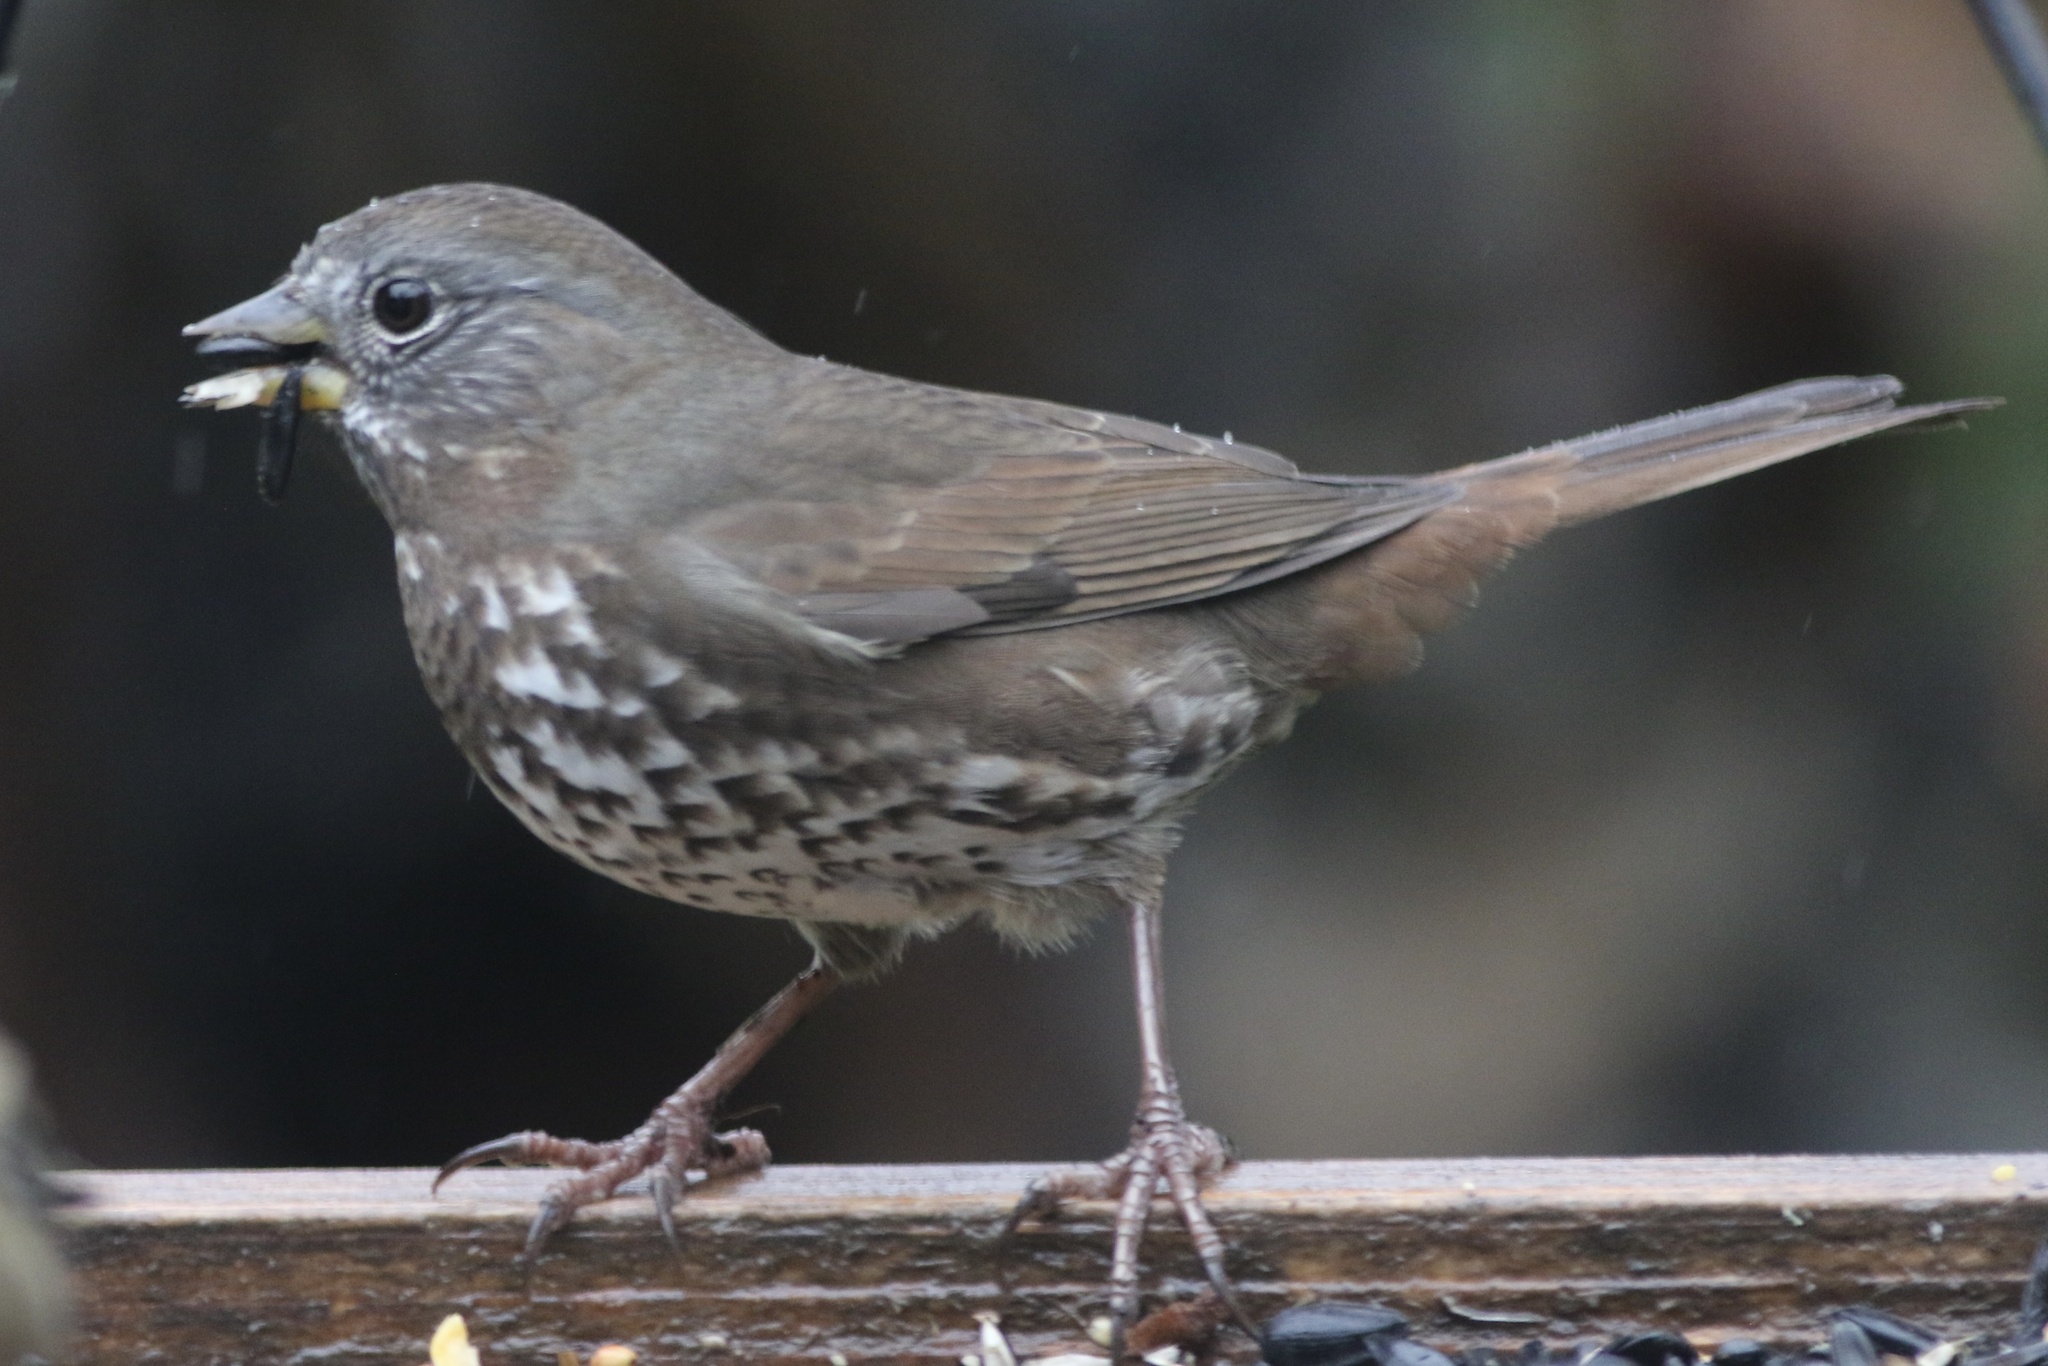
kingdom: Animalia
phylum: Chordata
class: Aves
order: Passeriformes
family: Passerellidae
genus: Passerella
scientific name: Passerella iliaca
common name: Fox sparrow
